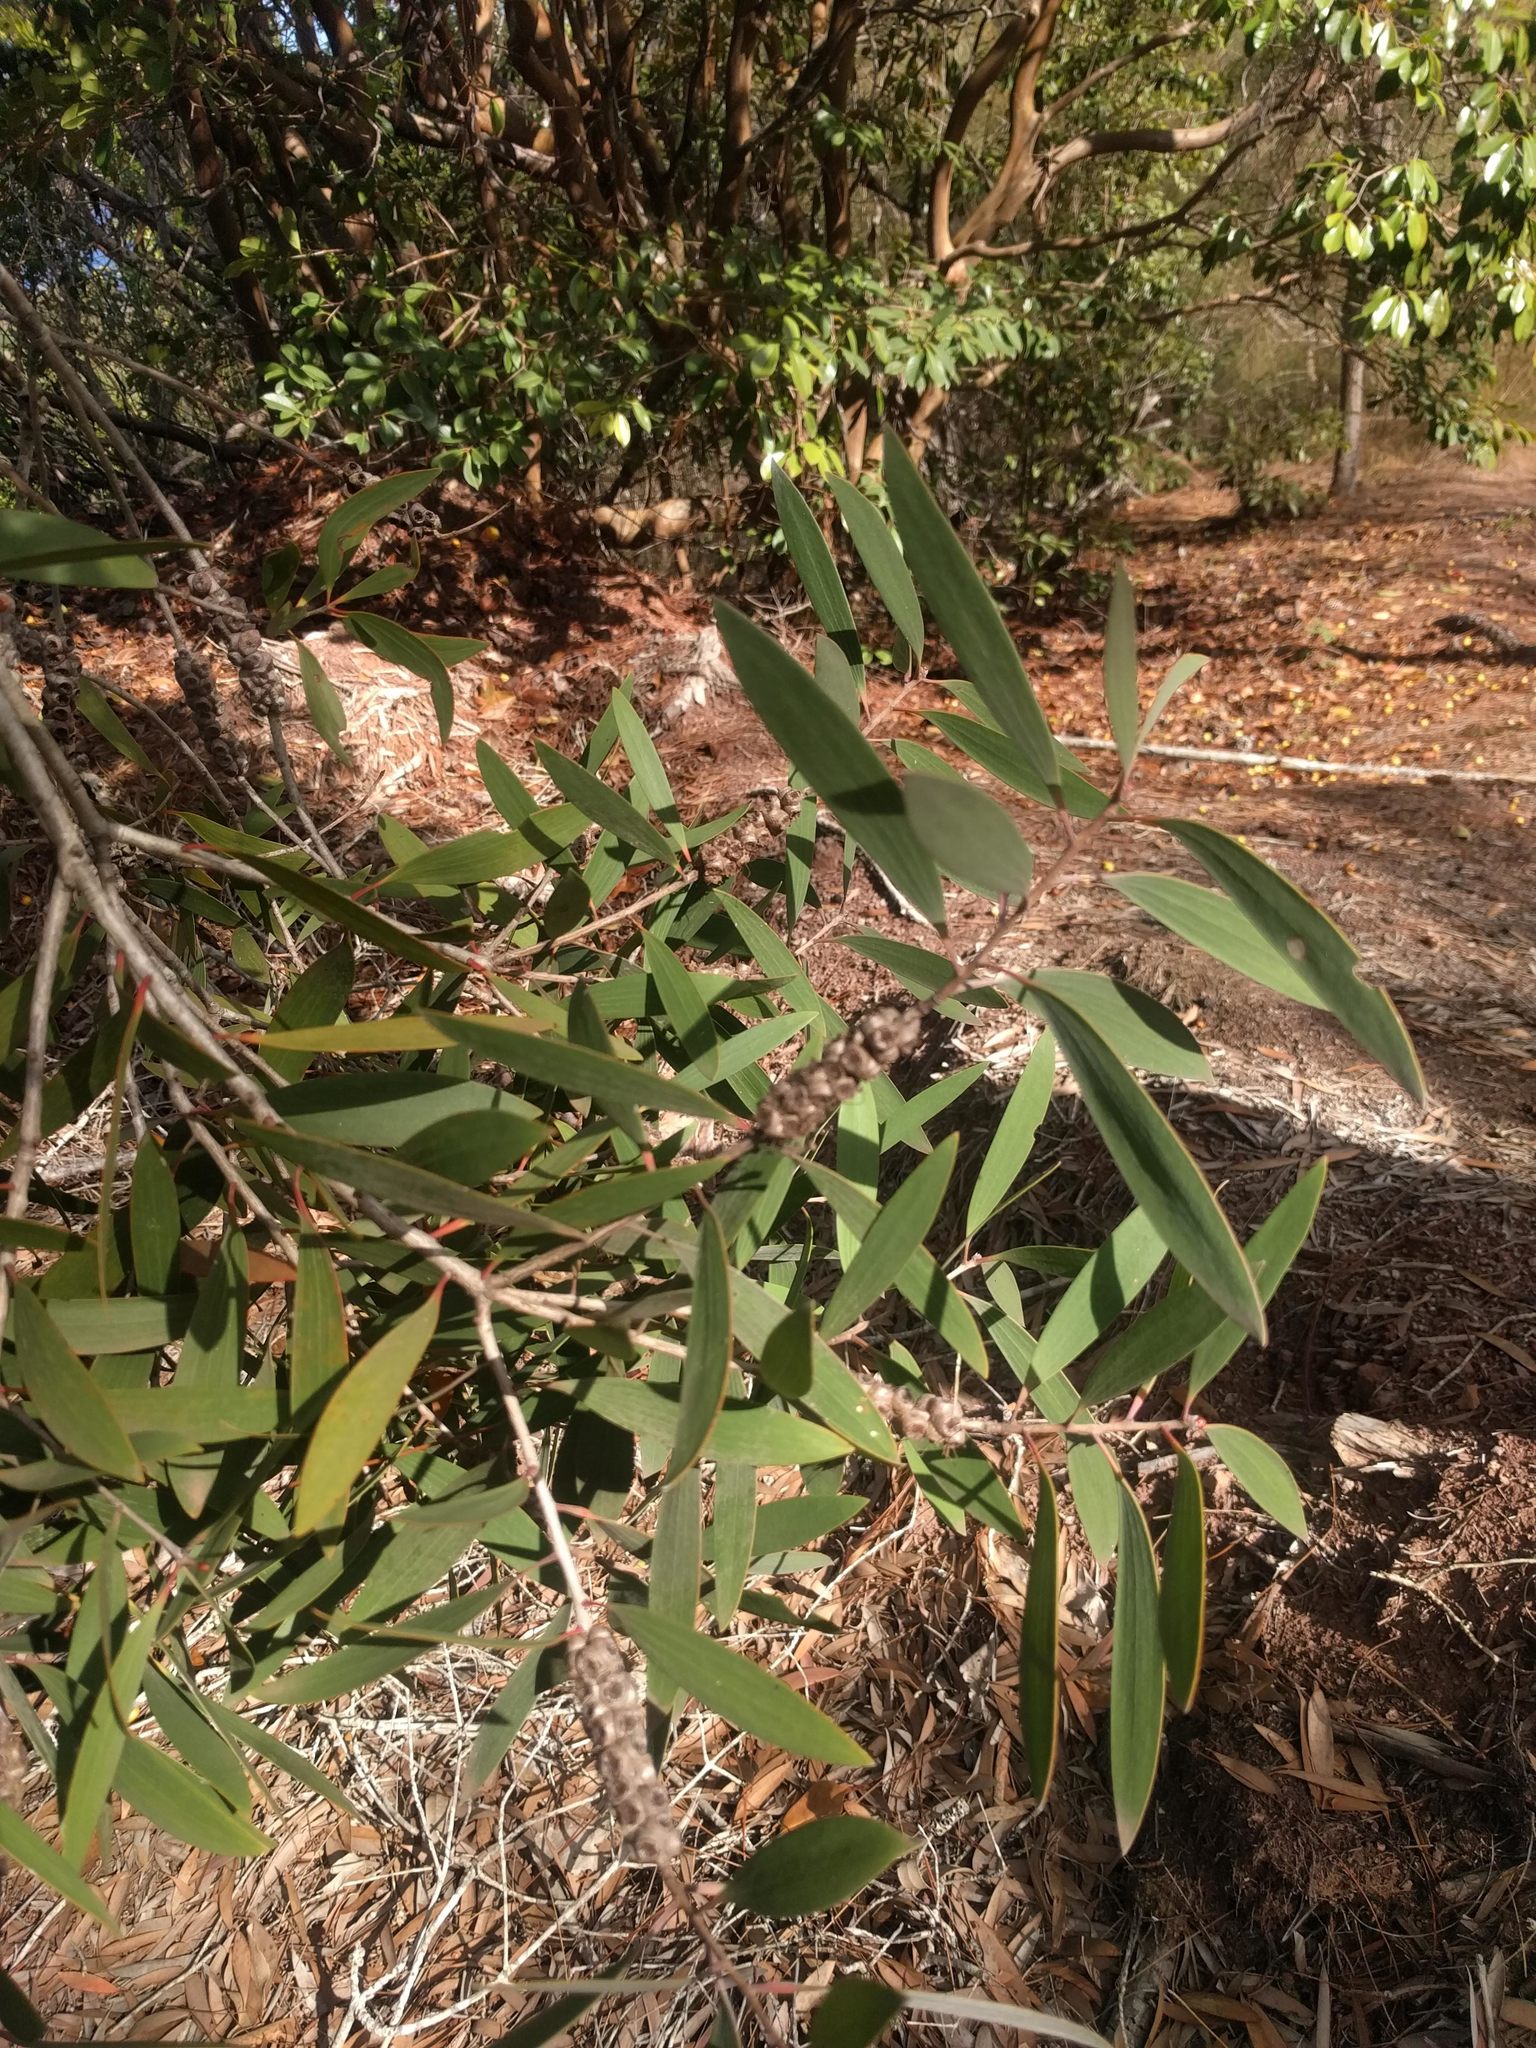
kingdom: Plantae
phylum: Tracheophyta
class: Magnoliopsida
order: Myrtales
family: Myrtaceae
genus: Melaleuca
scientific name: Melaleuca quinquenervia
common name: Punktree
